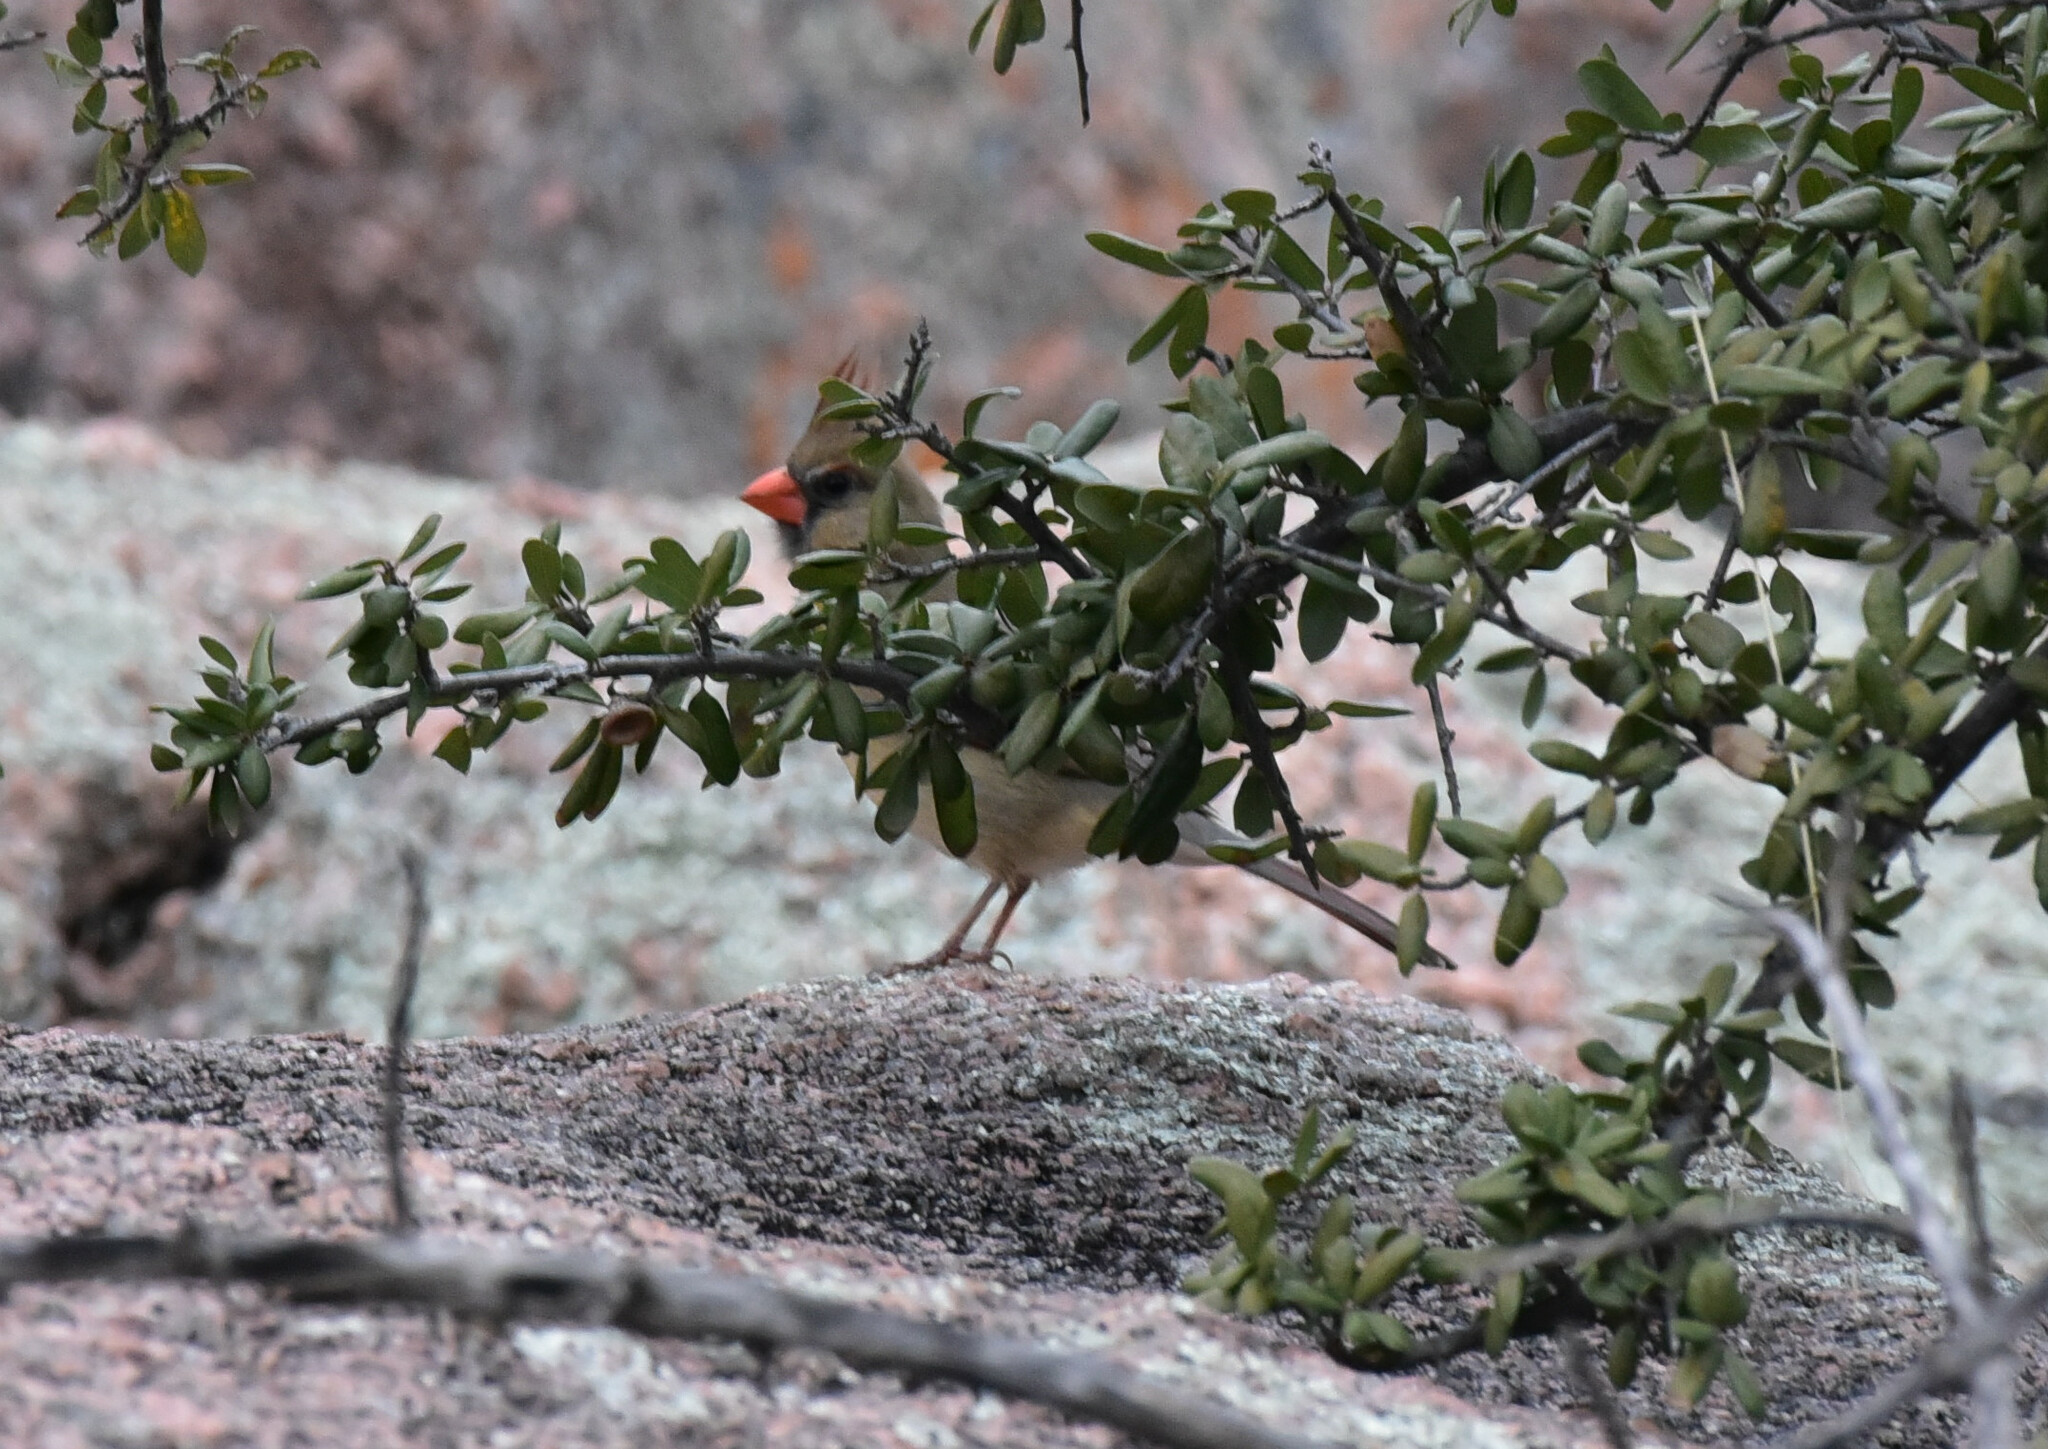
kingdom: Animalia
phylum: Chordata
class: Aves
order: Passeriformes
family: Cardinalidae
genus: Cardinalis
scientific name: Cardinalis cardinalis
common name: Northern cardinal
